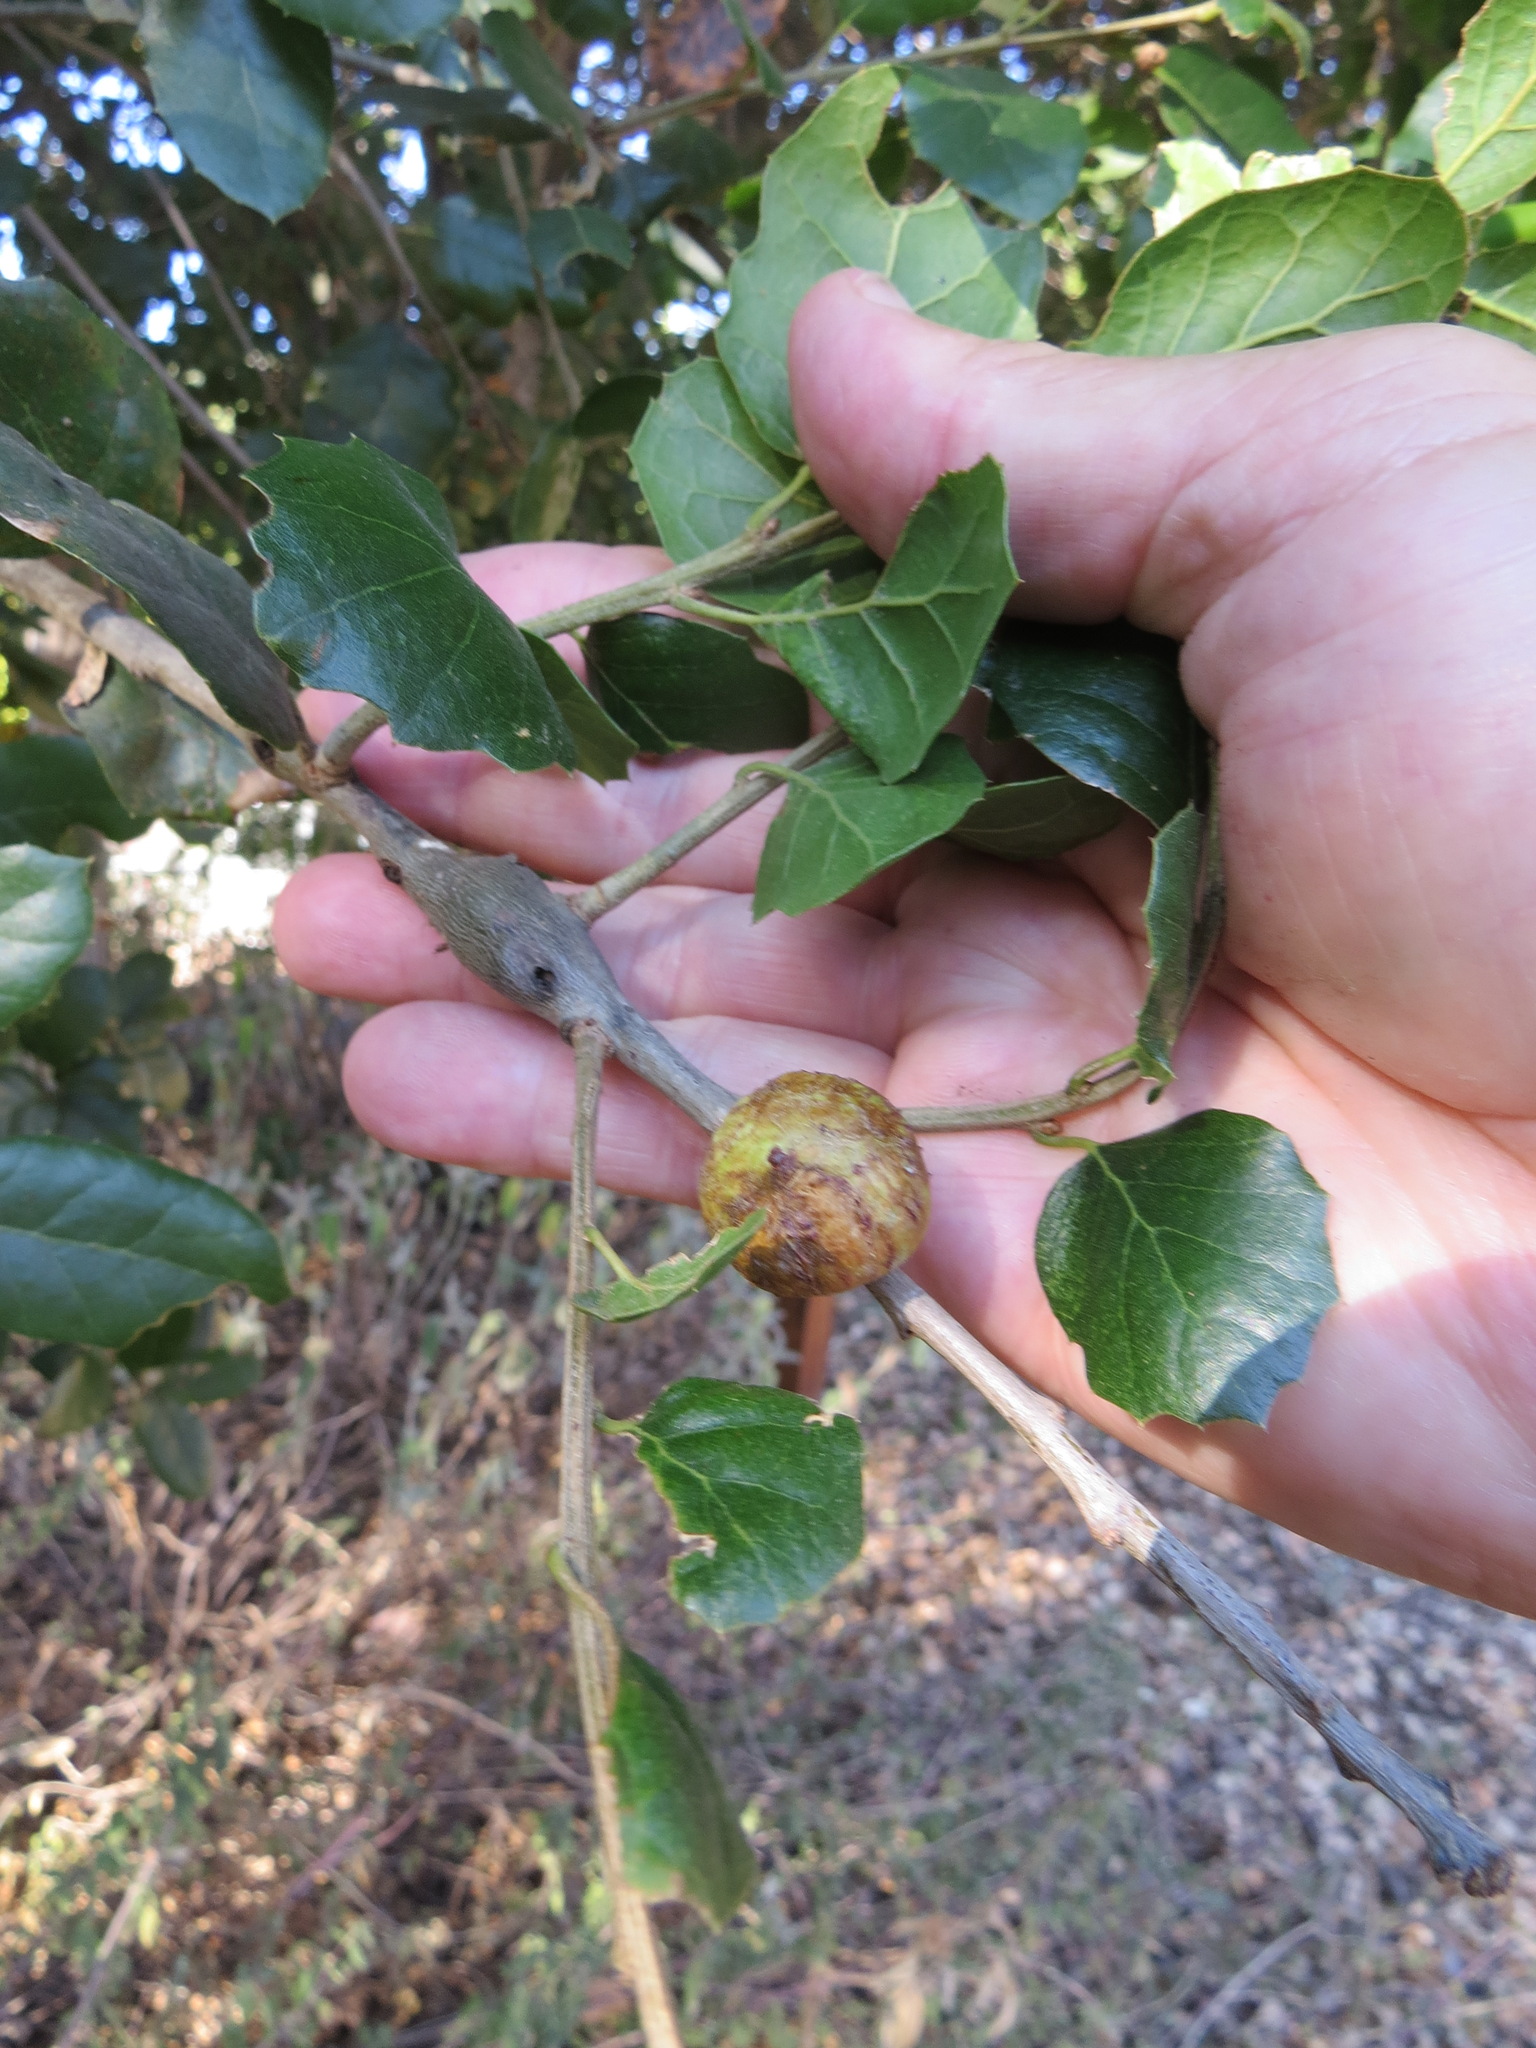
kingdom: Animalia
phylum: Arthropoda
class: Insecta
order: Hymenoptera
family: Cynipidae
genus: Amphibolips
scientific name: Amphibolips quercuspomiformis
